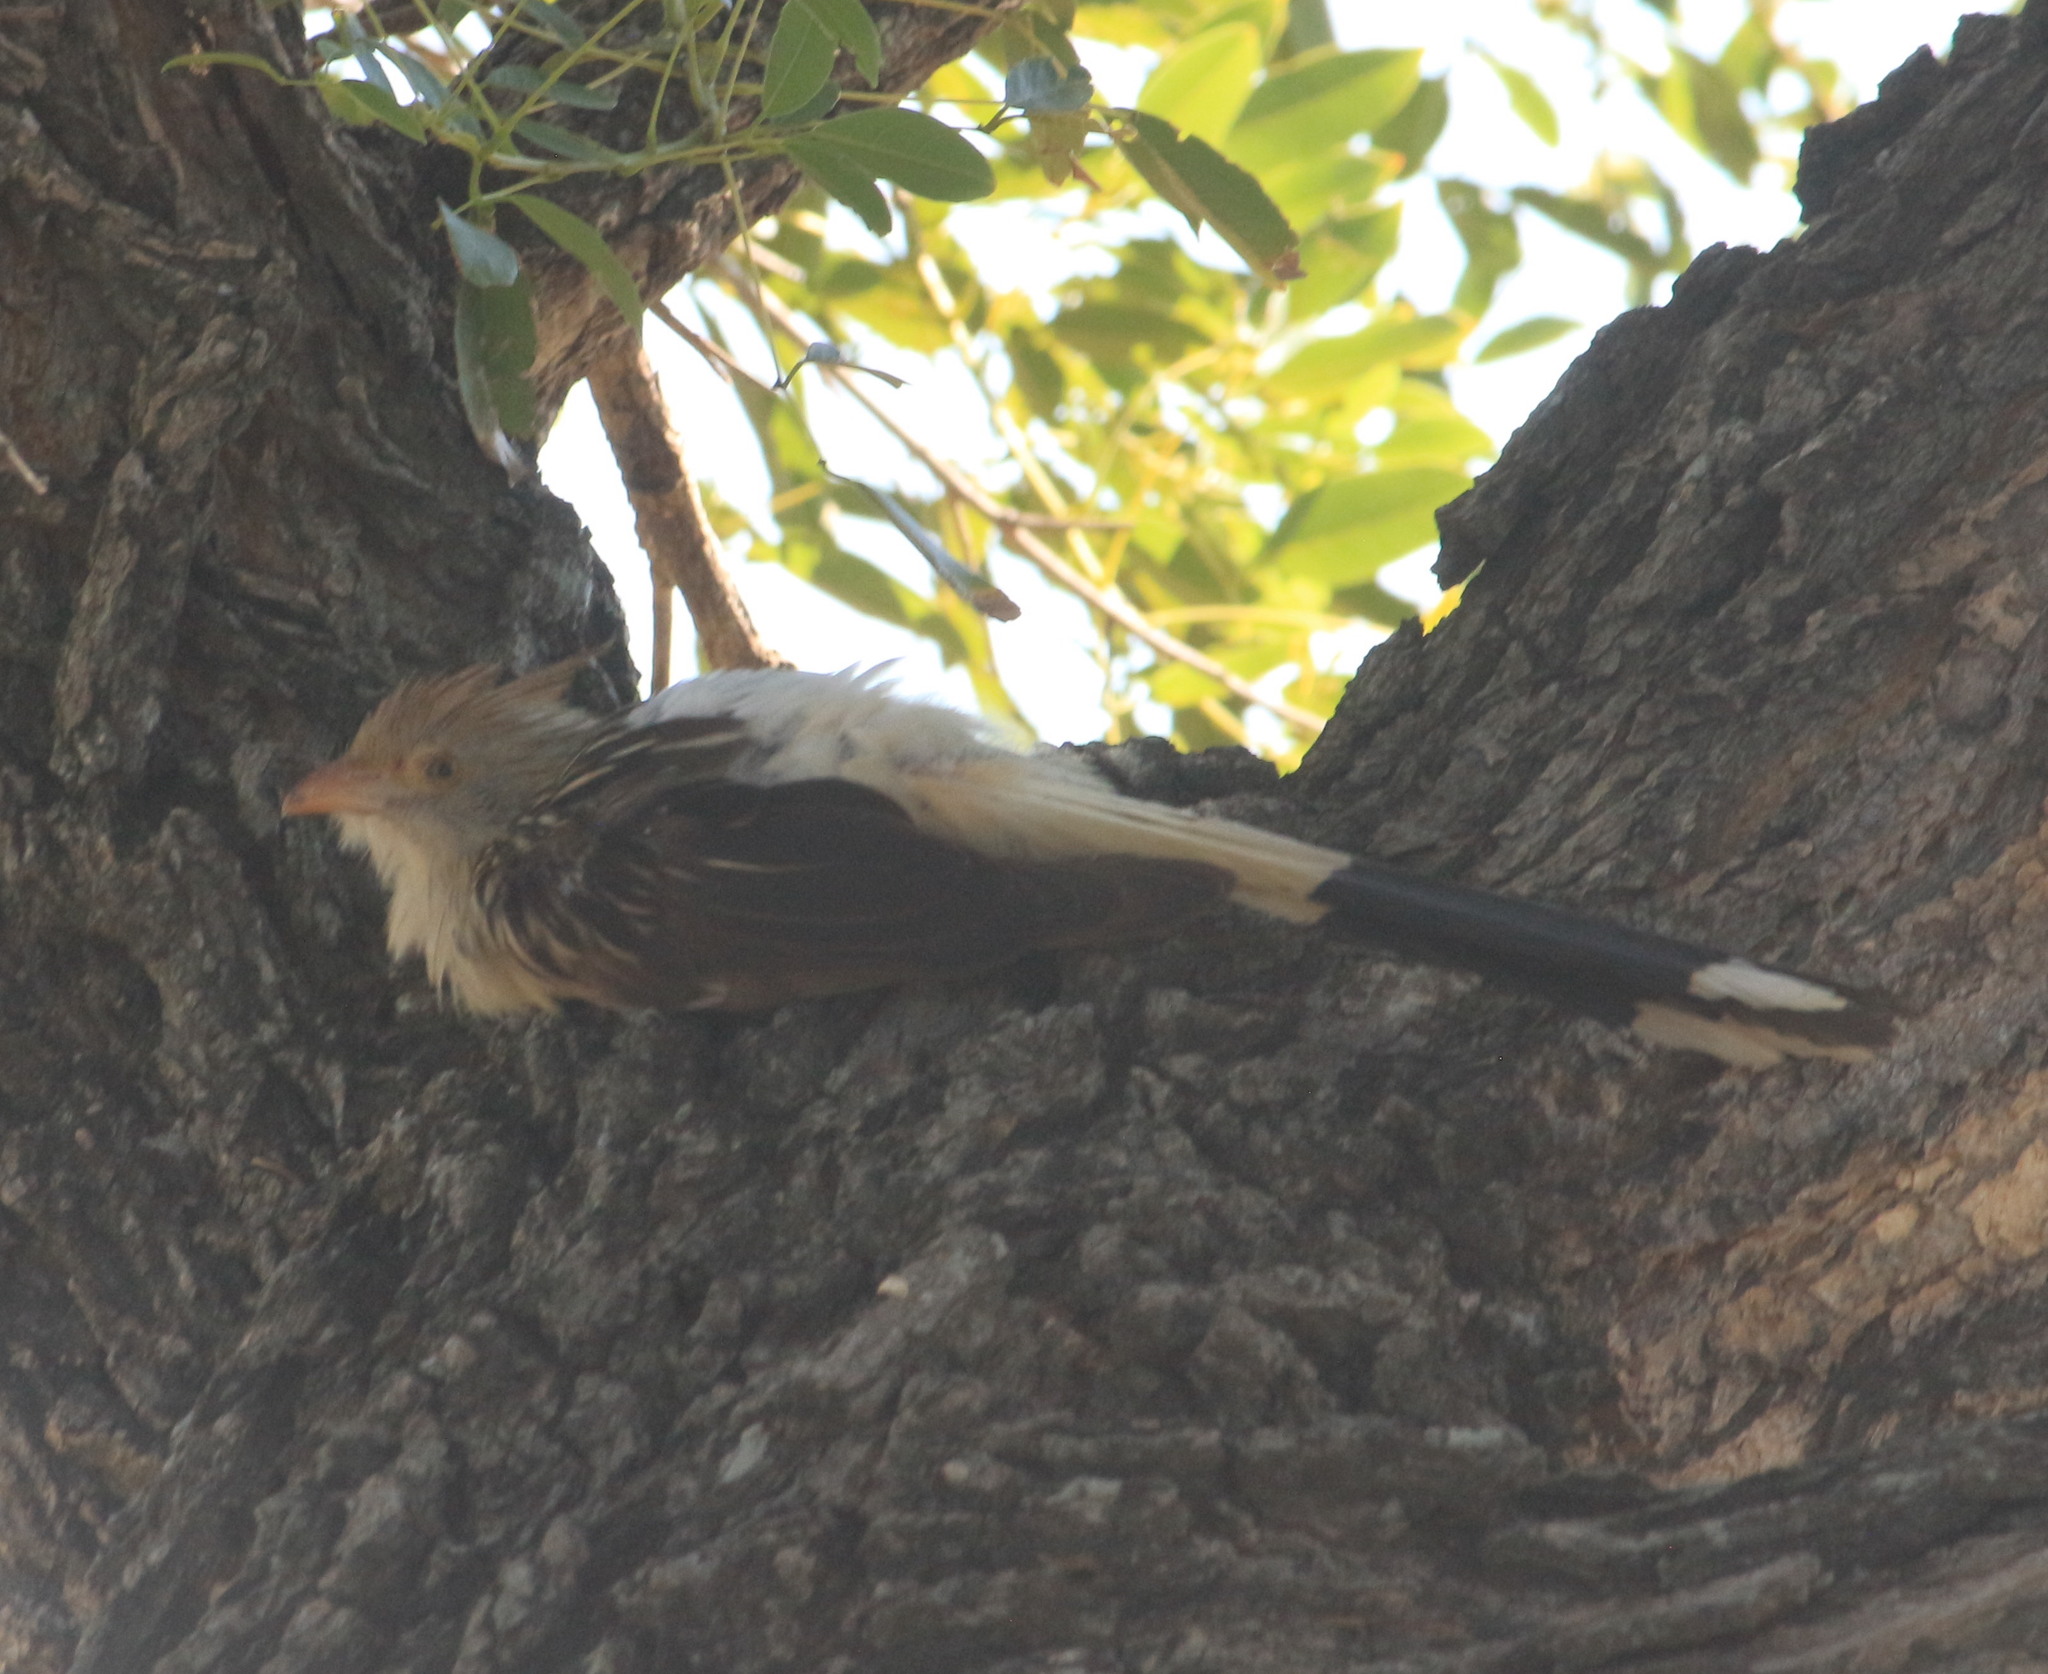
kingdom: Animalia
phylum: Chordata
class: Aves
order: Cuculiformes
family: Cuculidae
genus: Guira
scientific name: Guira guira
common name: Guira cuckoo
